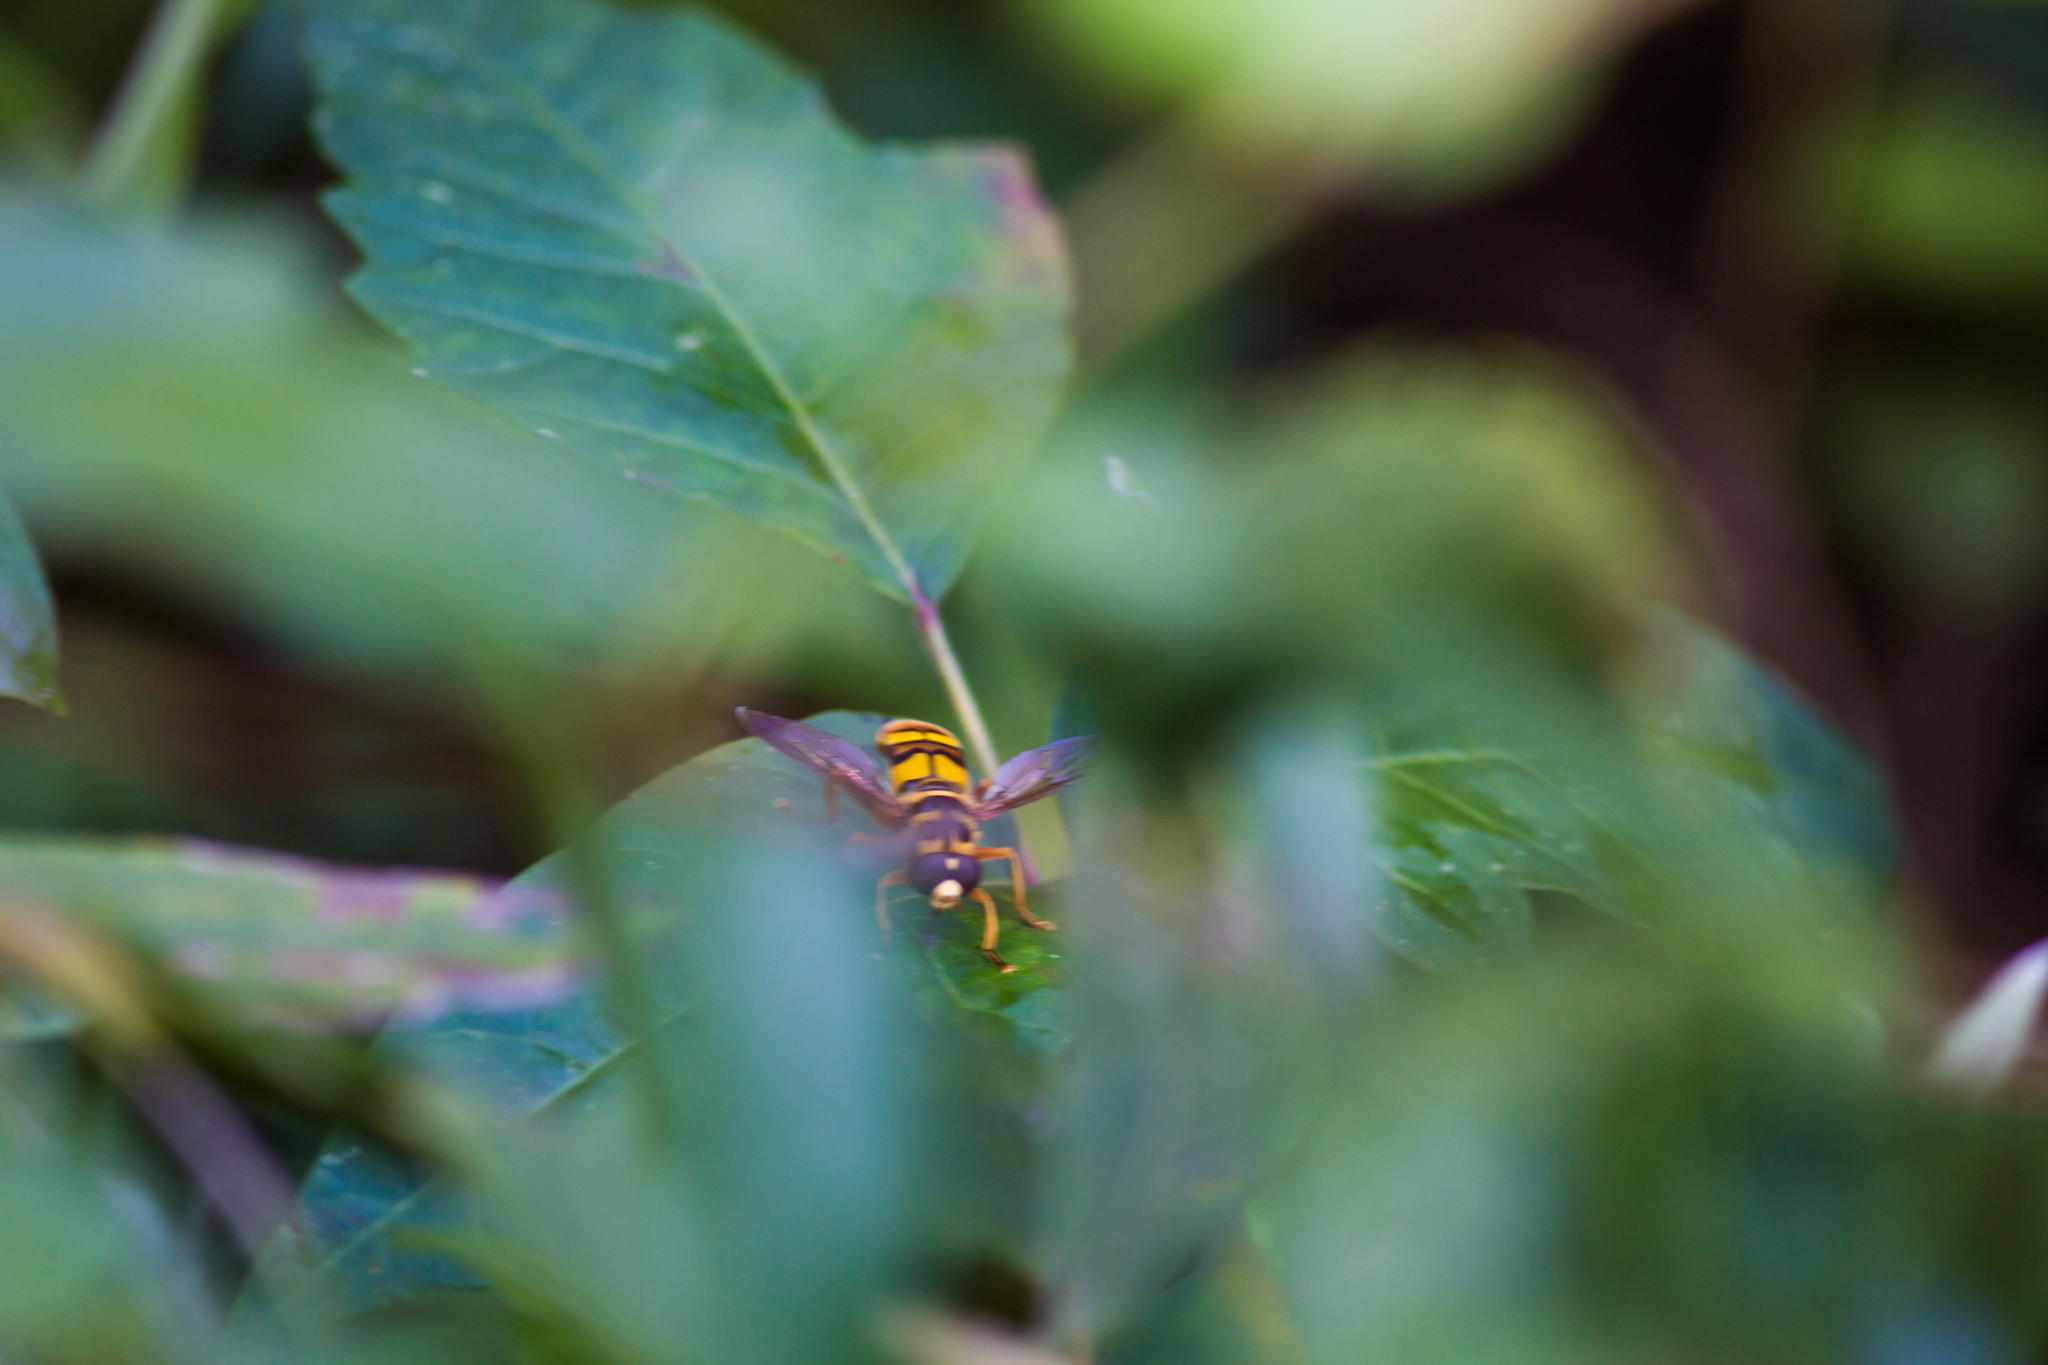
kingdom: Animalia
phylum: Arthropoda
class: Insecta
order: Diptera
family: Syrphidae
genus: Milesia
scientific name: Milesia virginiensis
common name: Virginia giant
